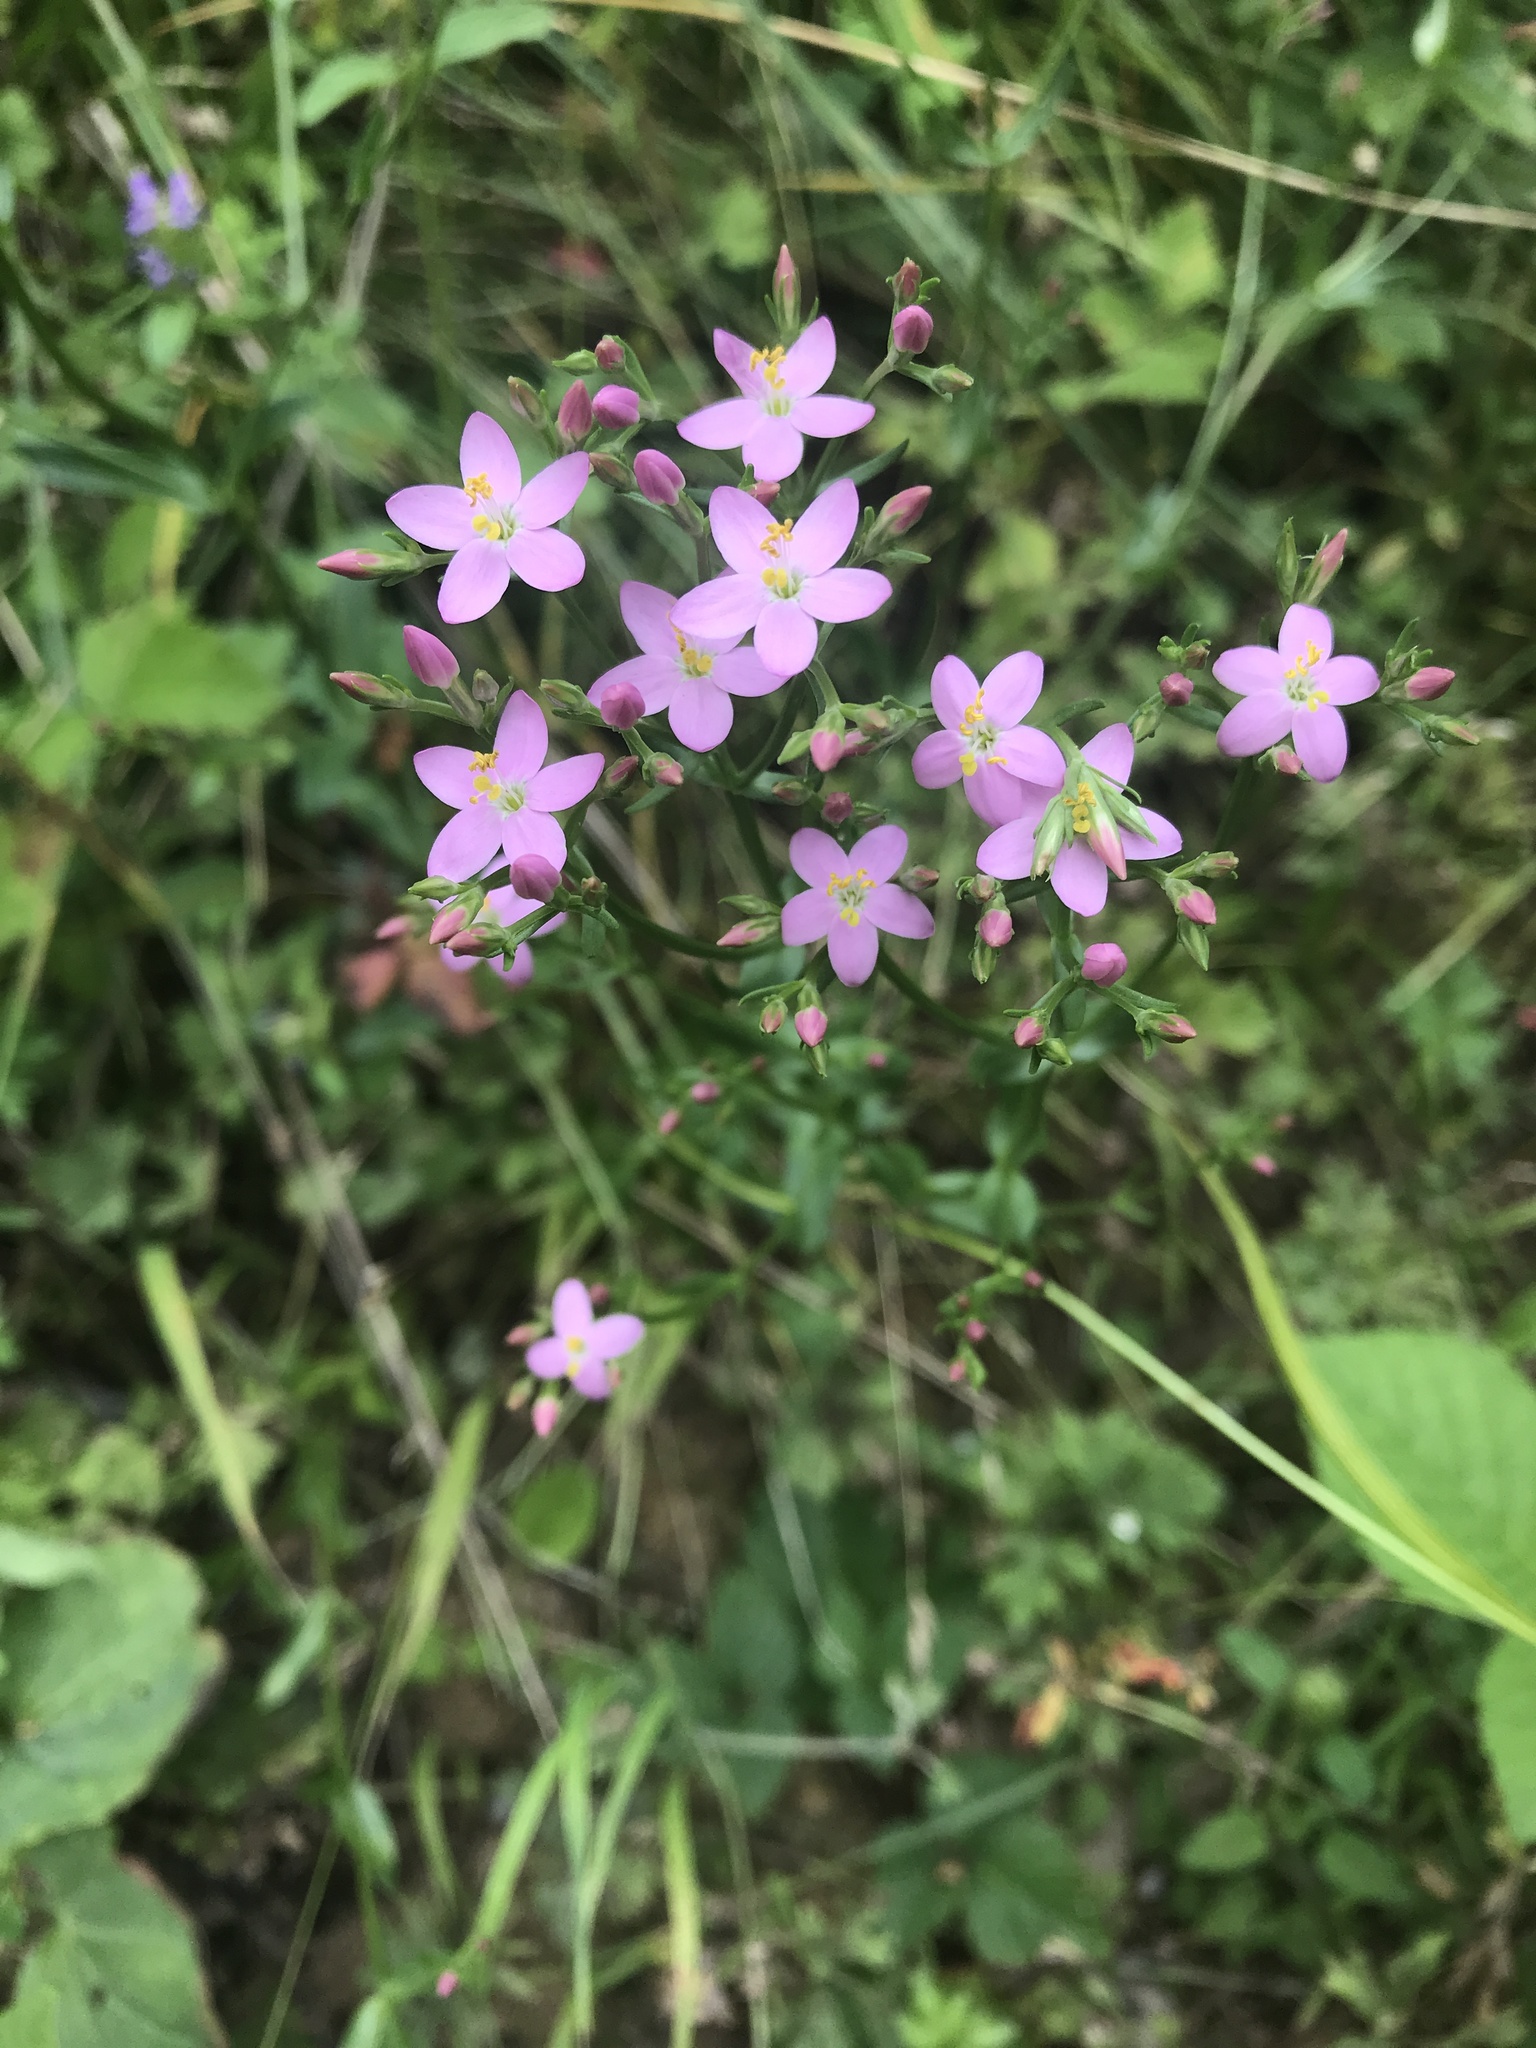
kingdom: Plantae
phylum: Tracheophyta
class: Magnoliopsida
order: Gentianales
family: Gentianaceae
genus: Centaurium
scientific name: Centaurium erythraea
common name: Common centaury
